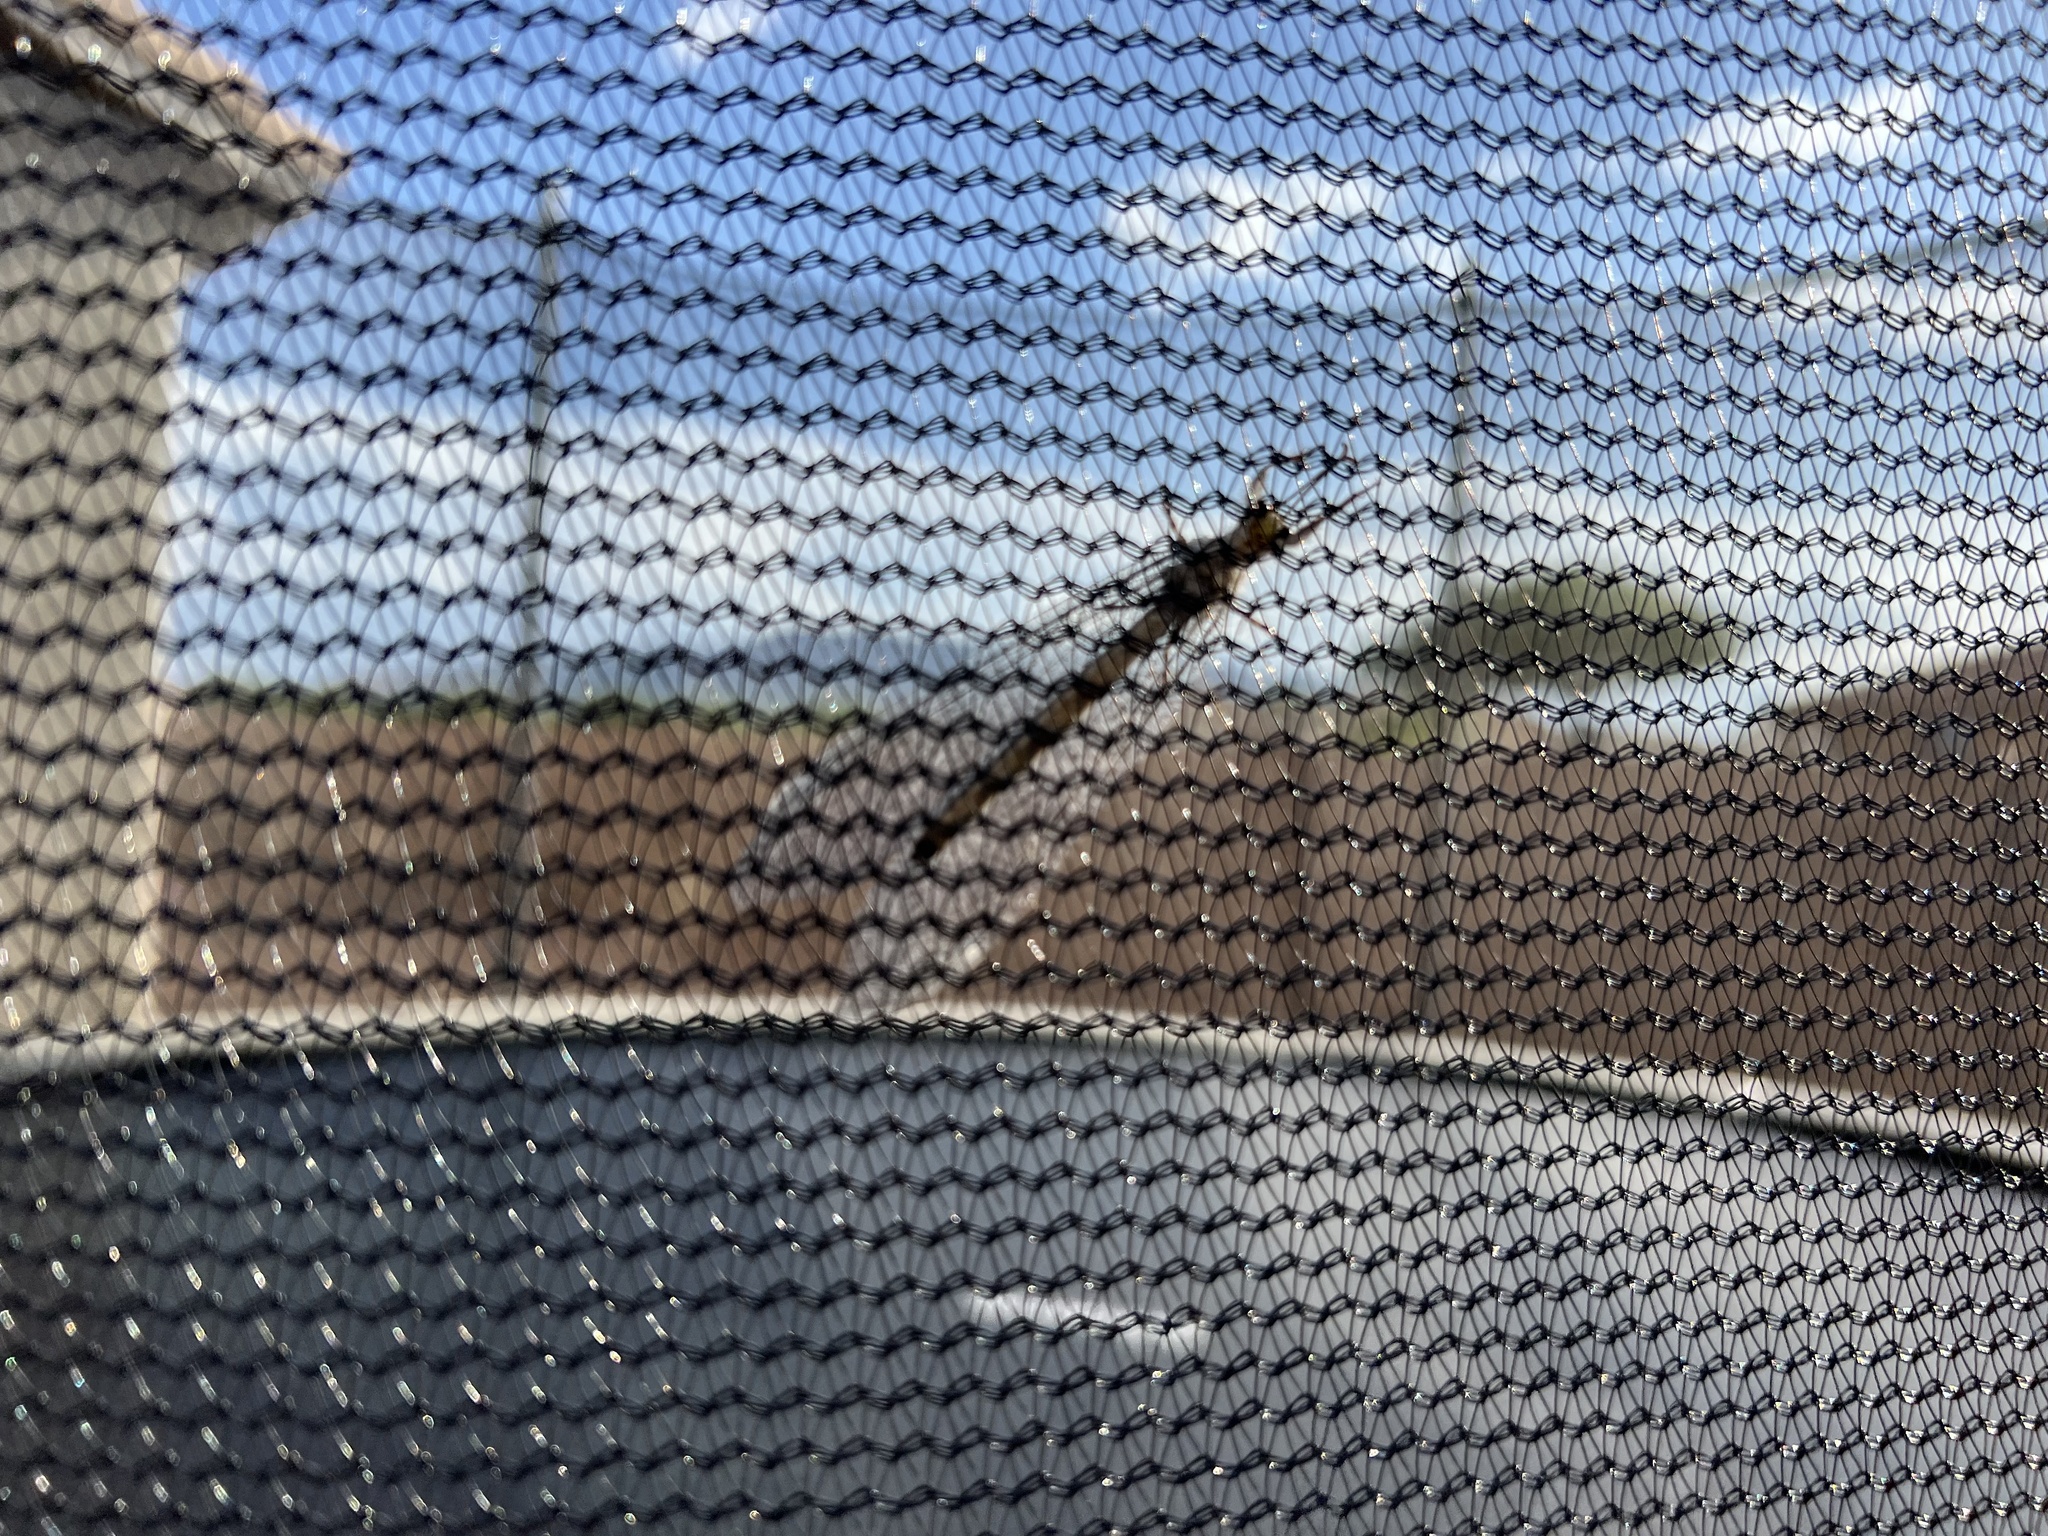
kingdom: Animalia
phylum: Arthropoda
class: Insecta
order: Neuroptera
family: Myrmeleontidae
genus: Vella
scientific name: Vella fallax
